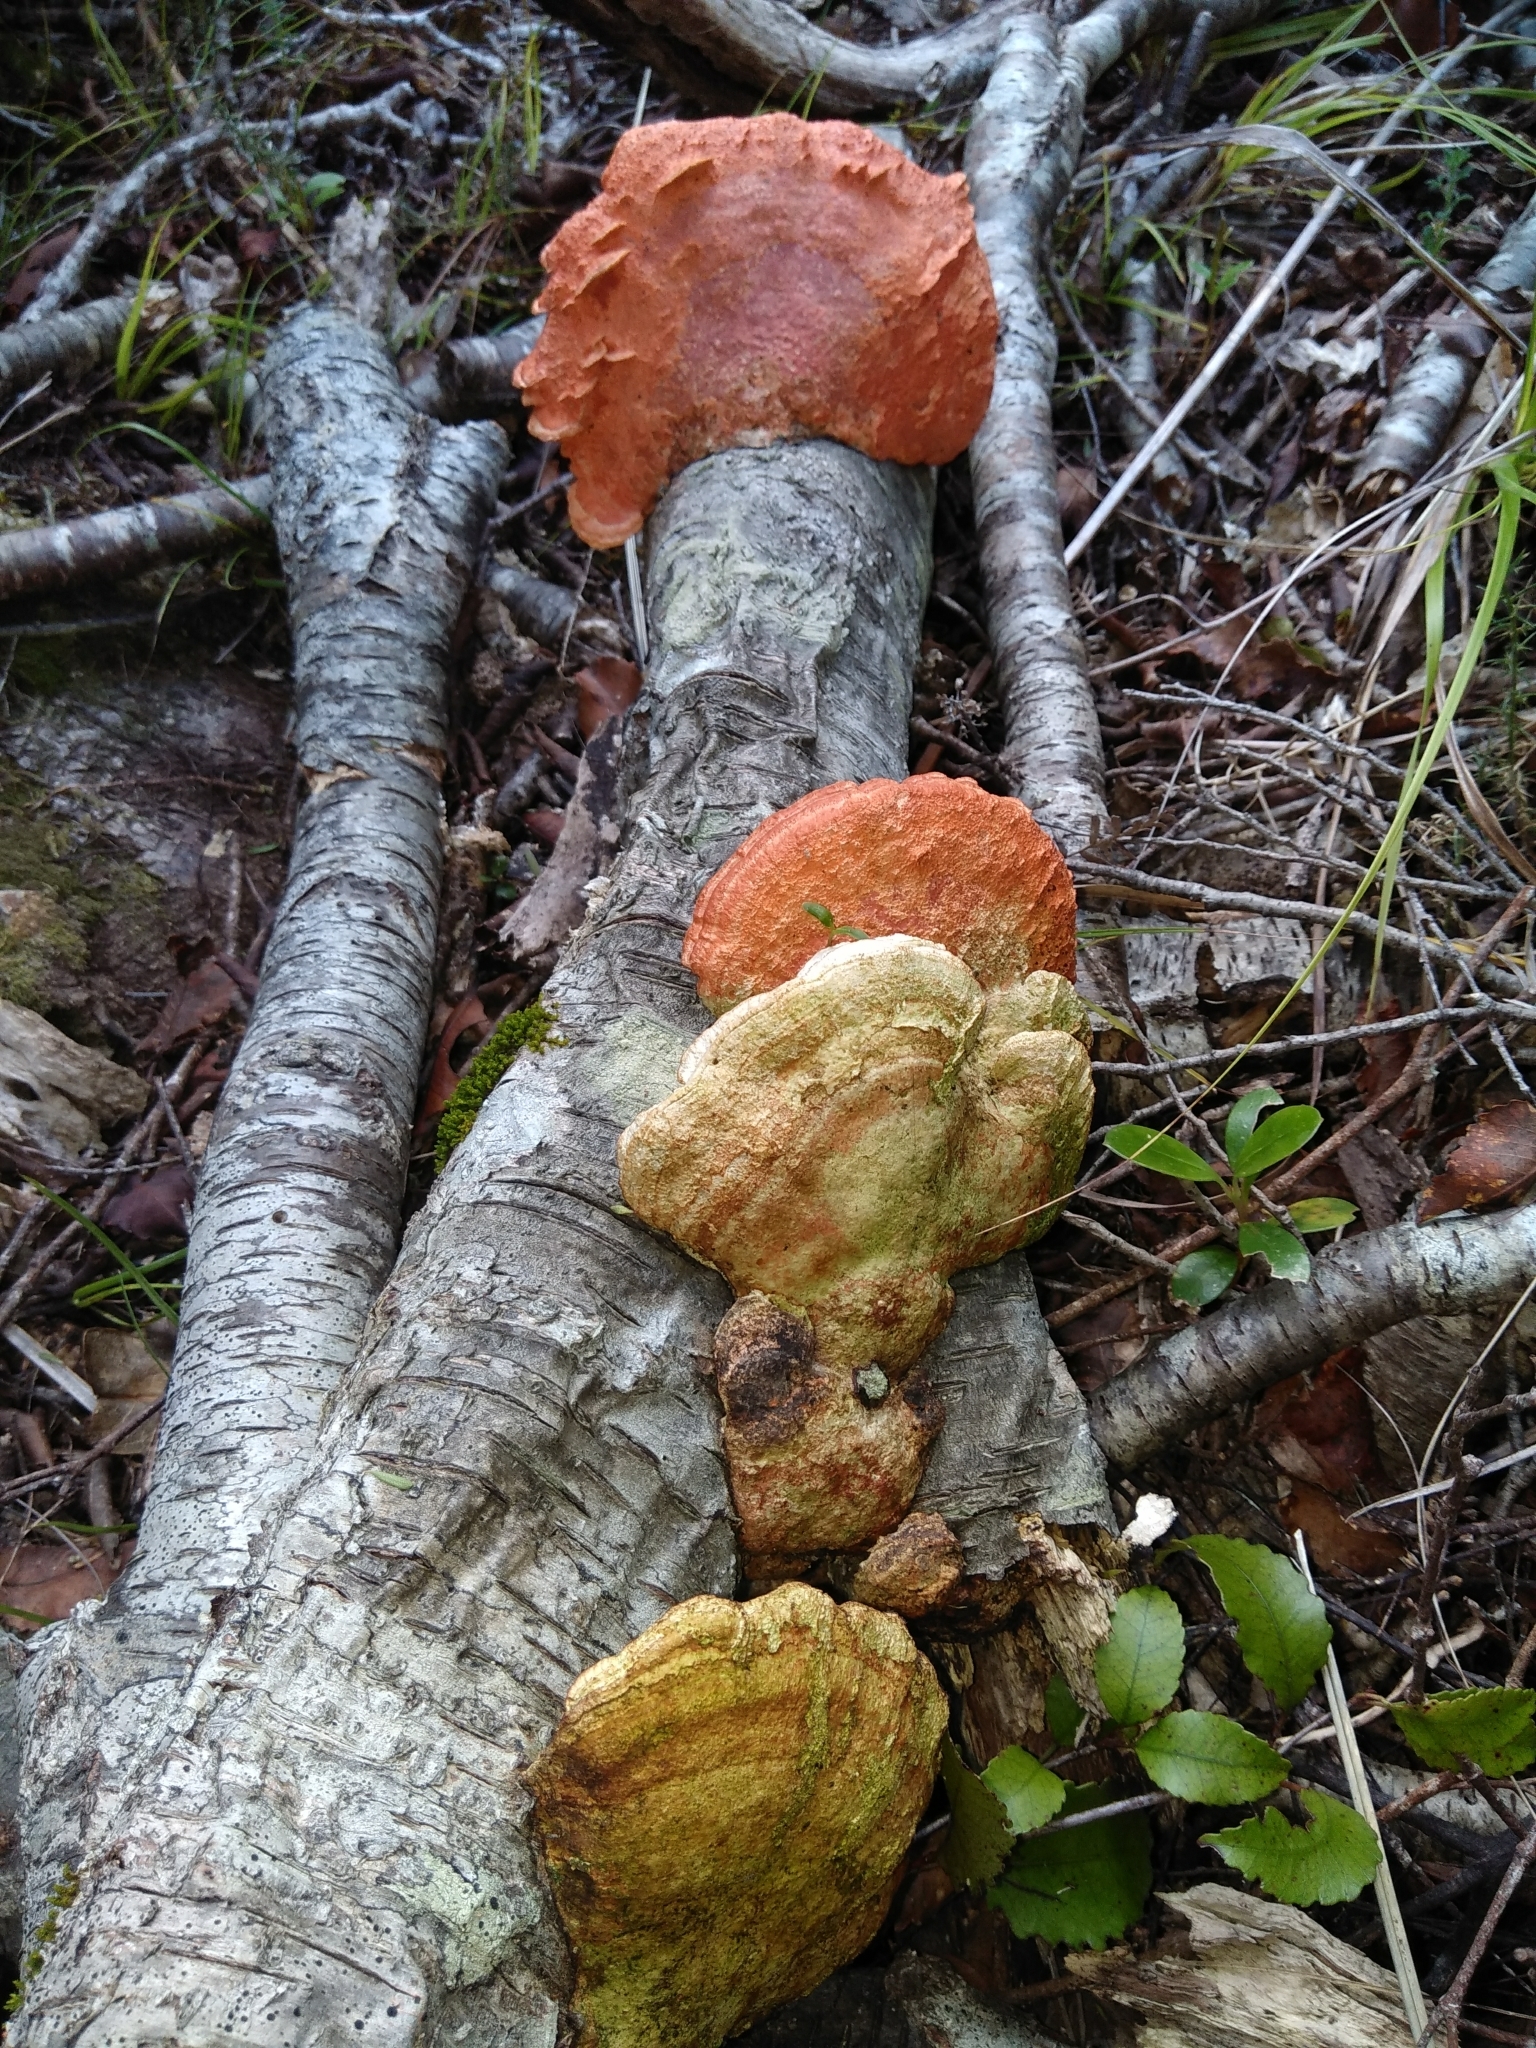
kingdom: Fungi
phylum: Basidiomycota
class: Agaricomycetes
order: Polyporales
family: Polyporaceae
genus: Trametes
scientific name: Trametes coccinea
